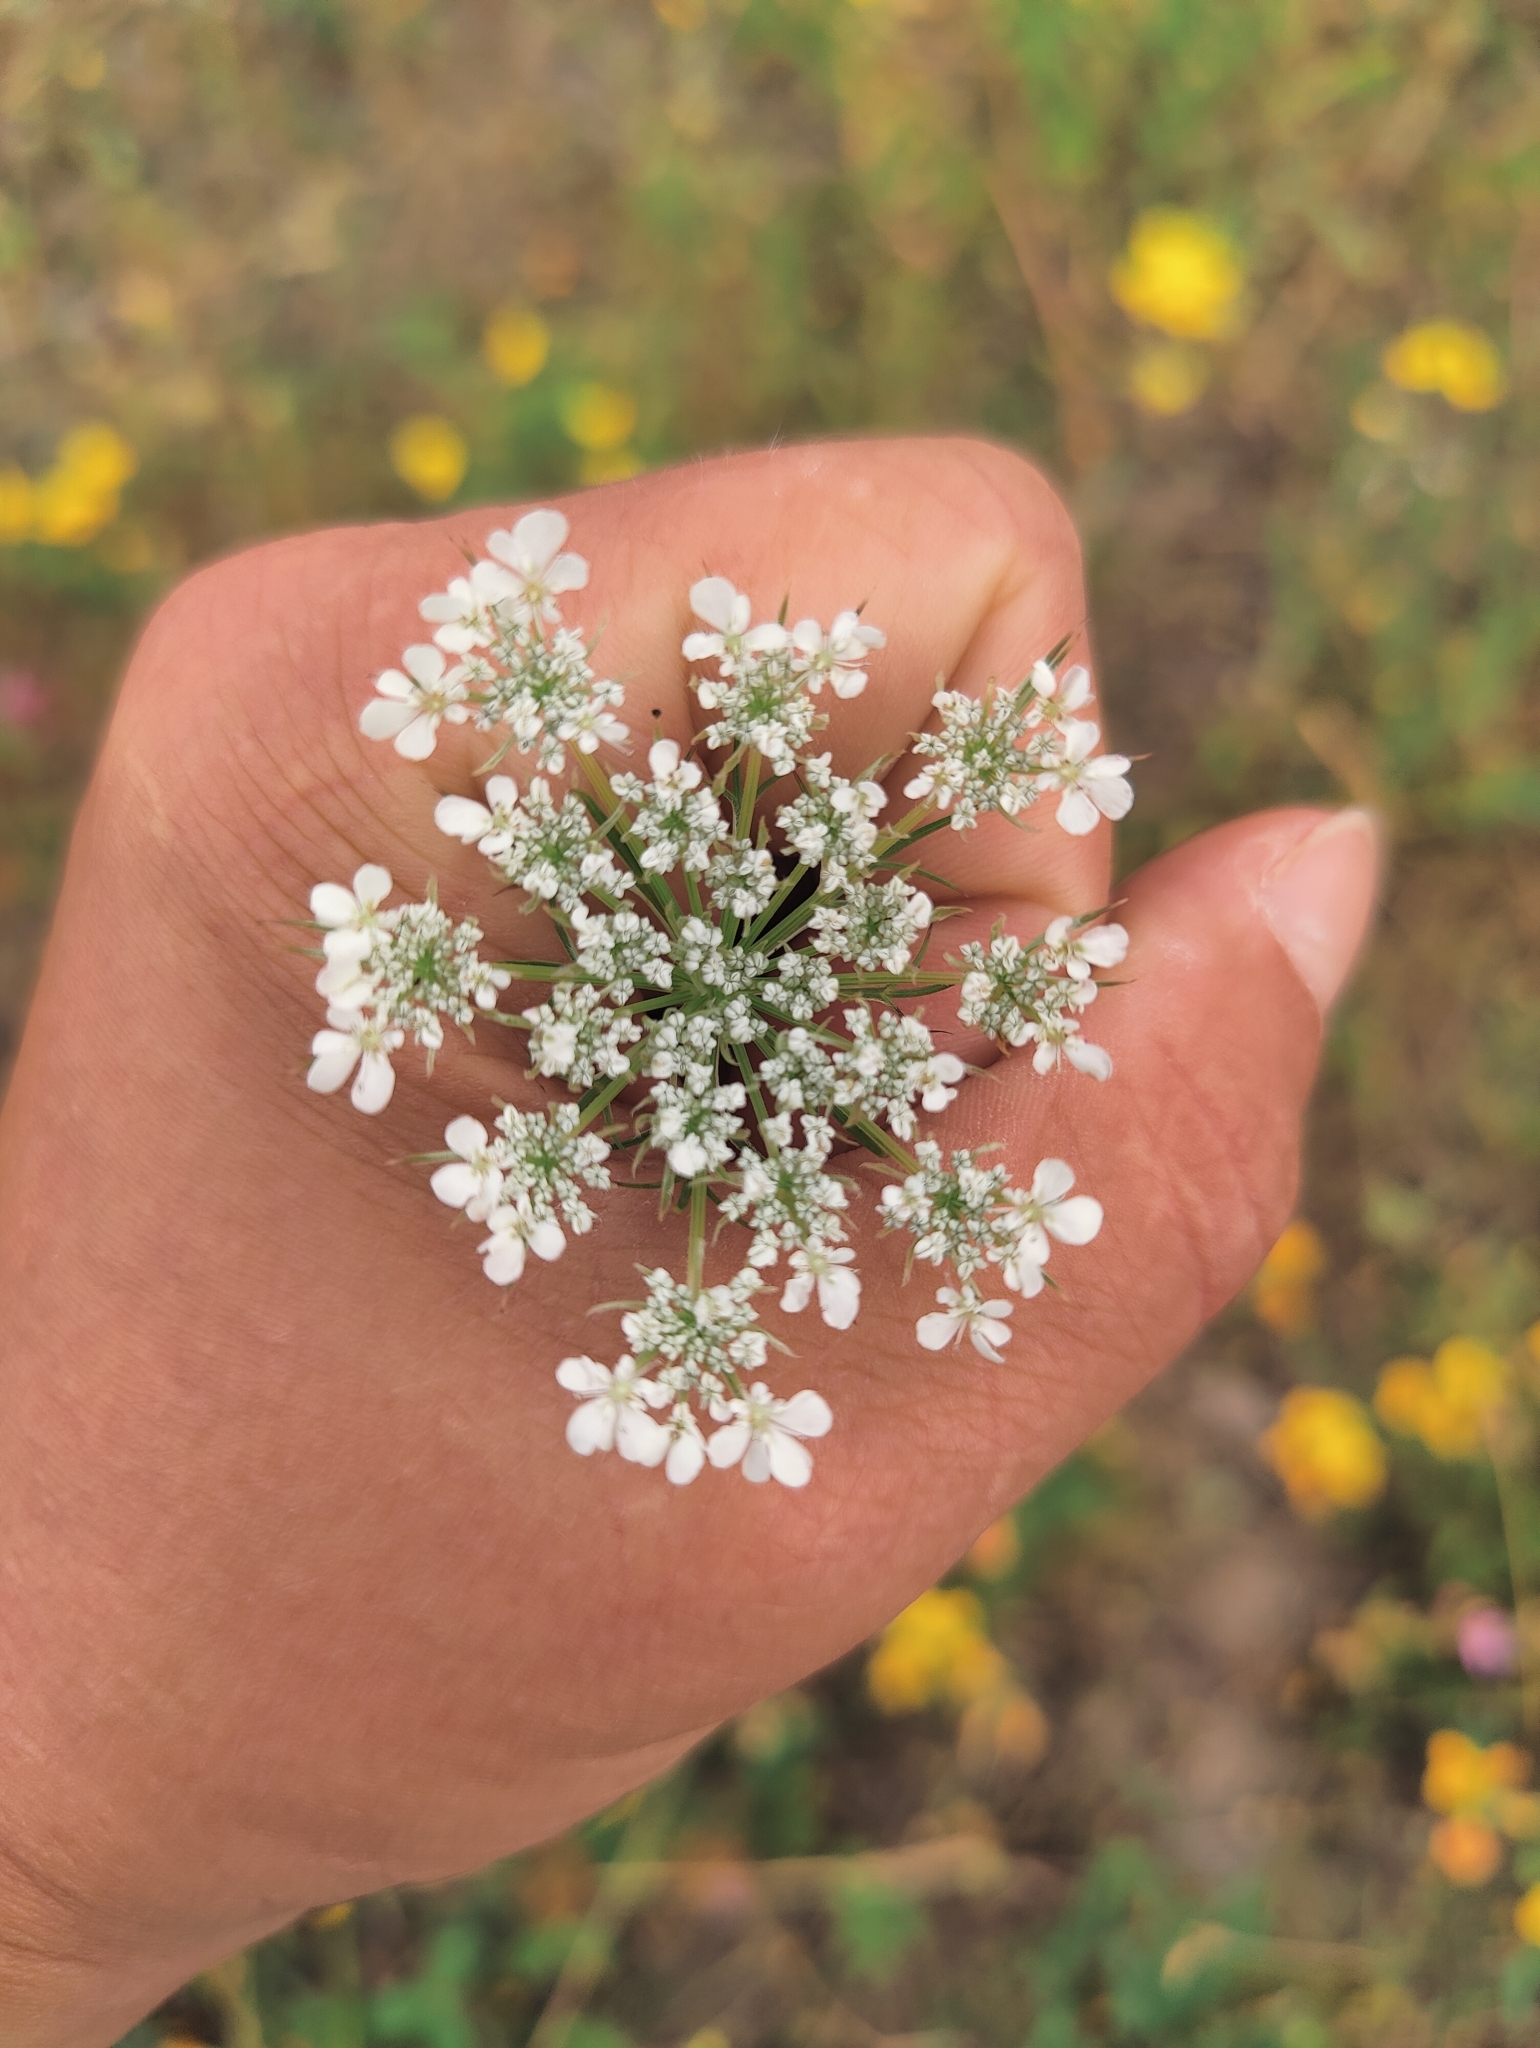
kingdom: Plantae
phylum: Tracheophyta
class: Magnoliopsida
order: Apiales
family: Apiaceae
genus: Daucus
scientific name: Daucus carota
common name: Wild carrot
